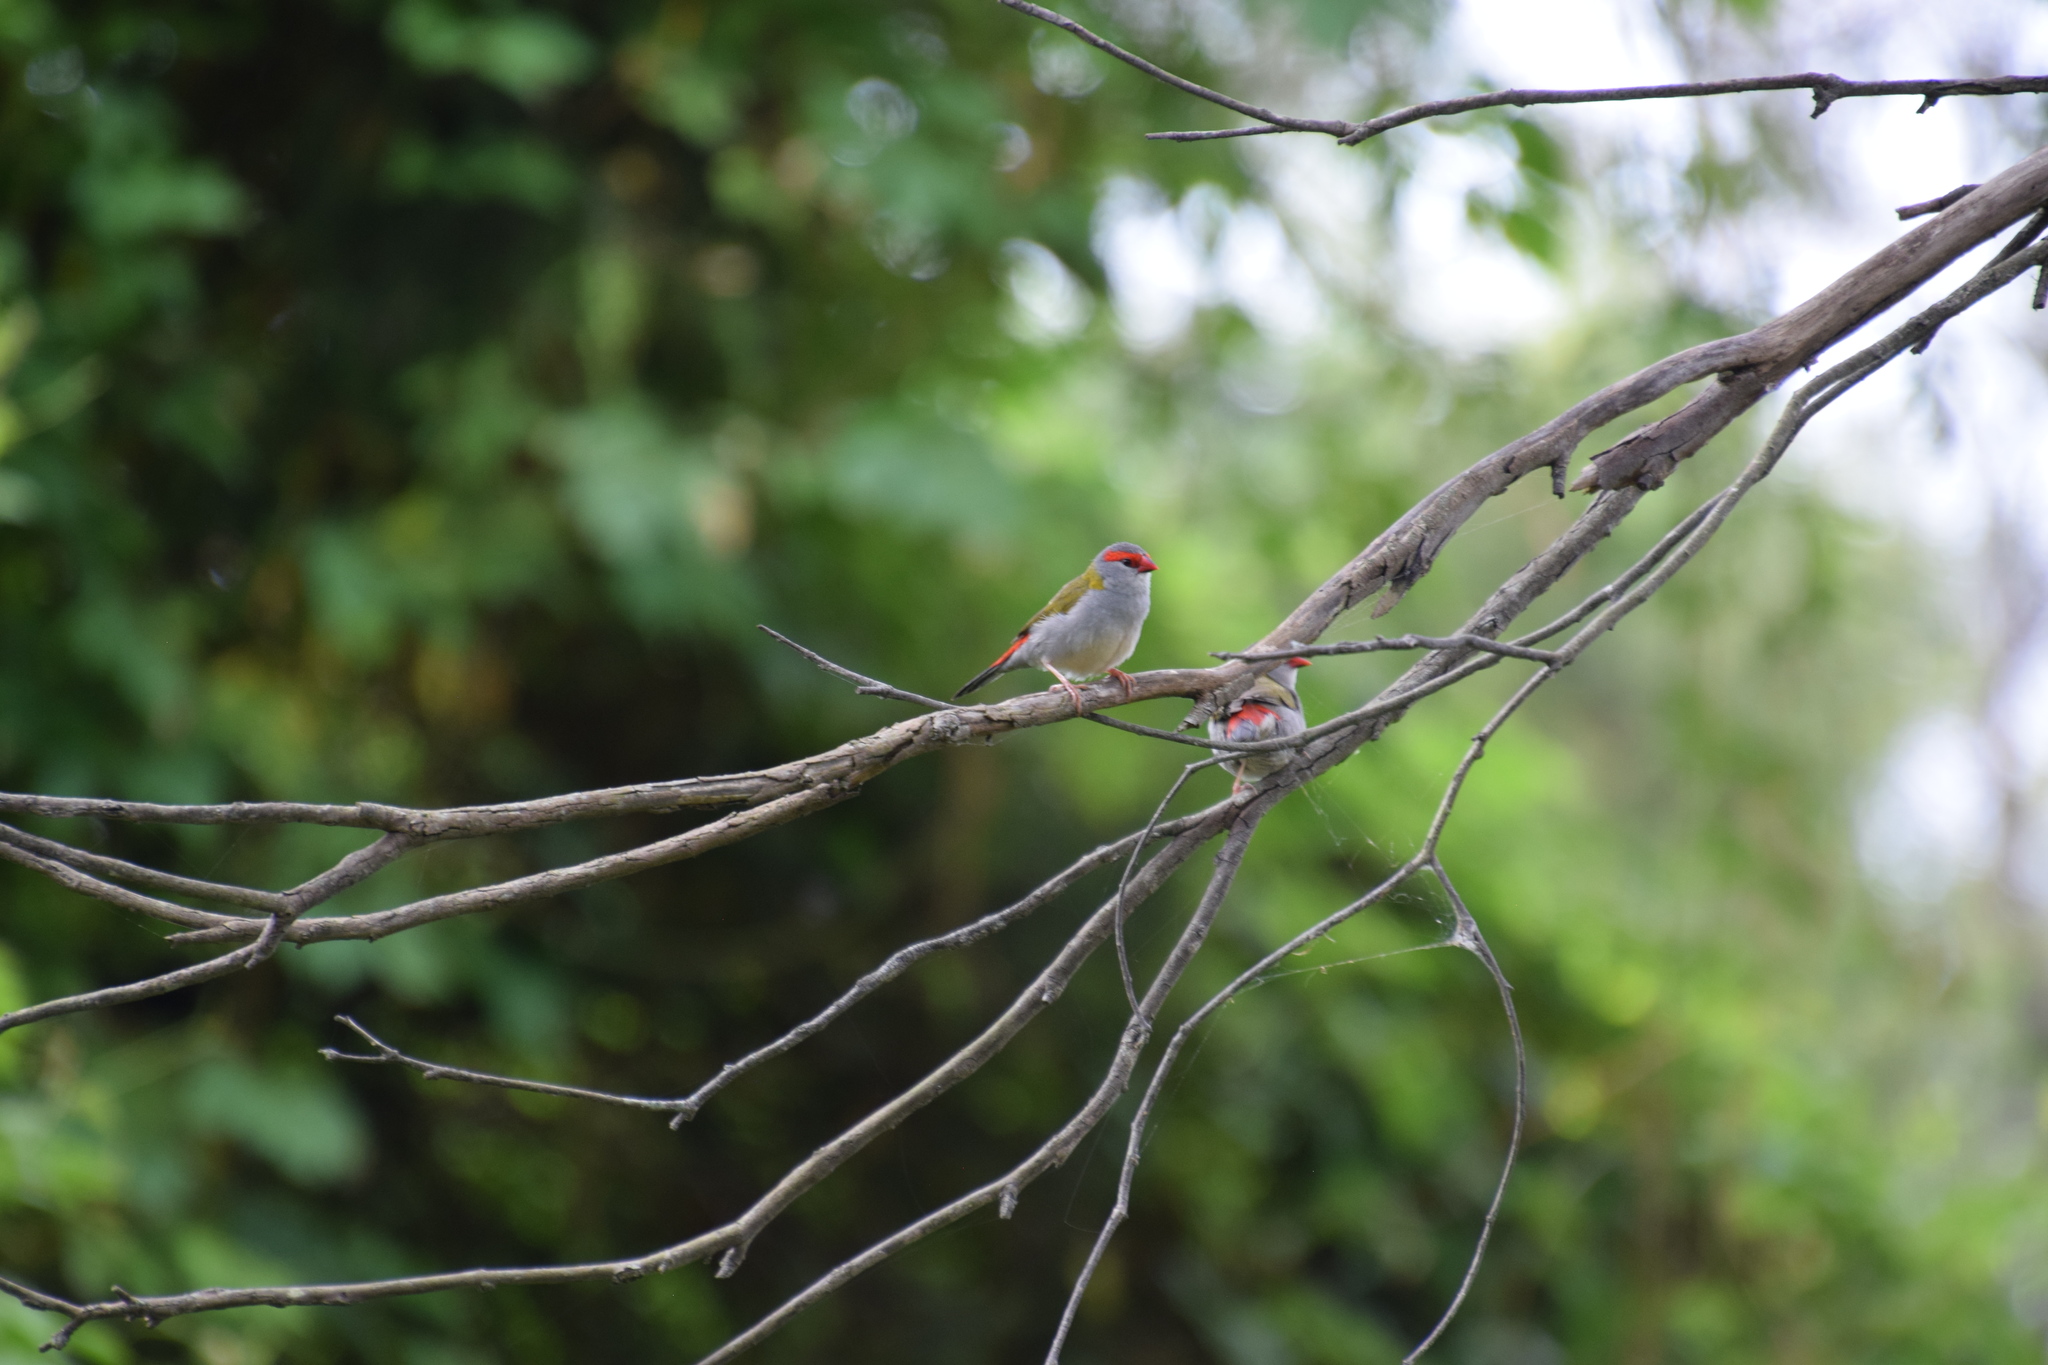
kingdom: Animalia
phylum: Chordata
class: Aves
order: Passeriformes
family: Estrildidae
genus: Neochmia
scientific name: Neochmia temporalis
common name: Red-browed finch
